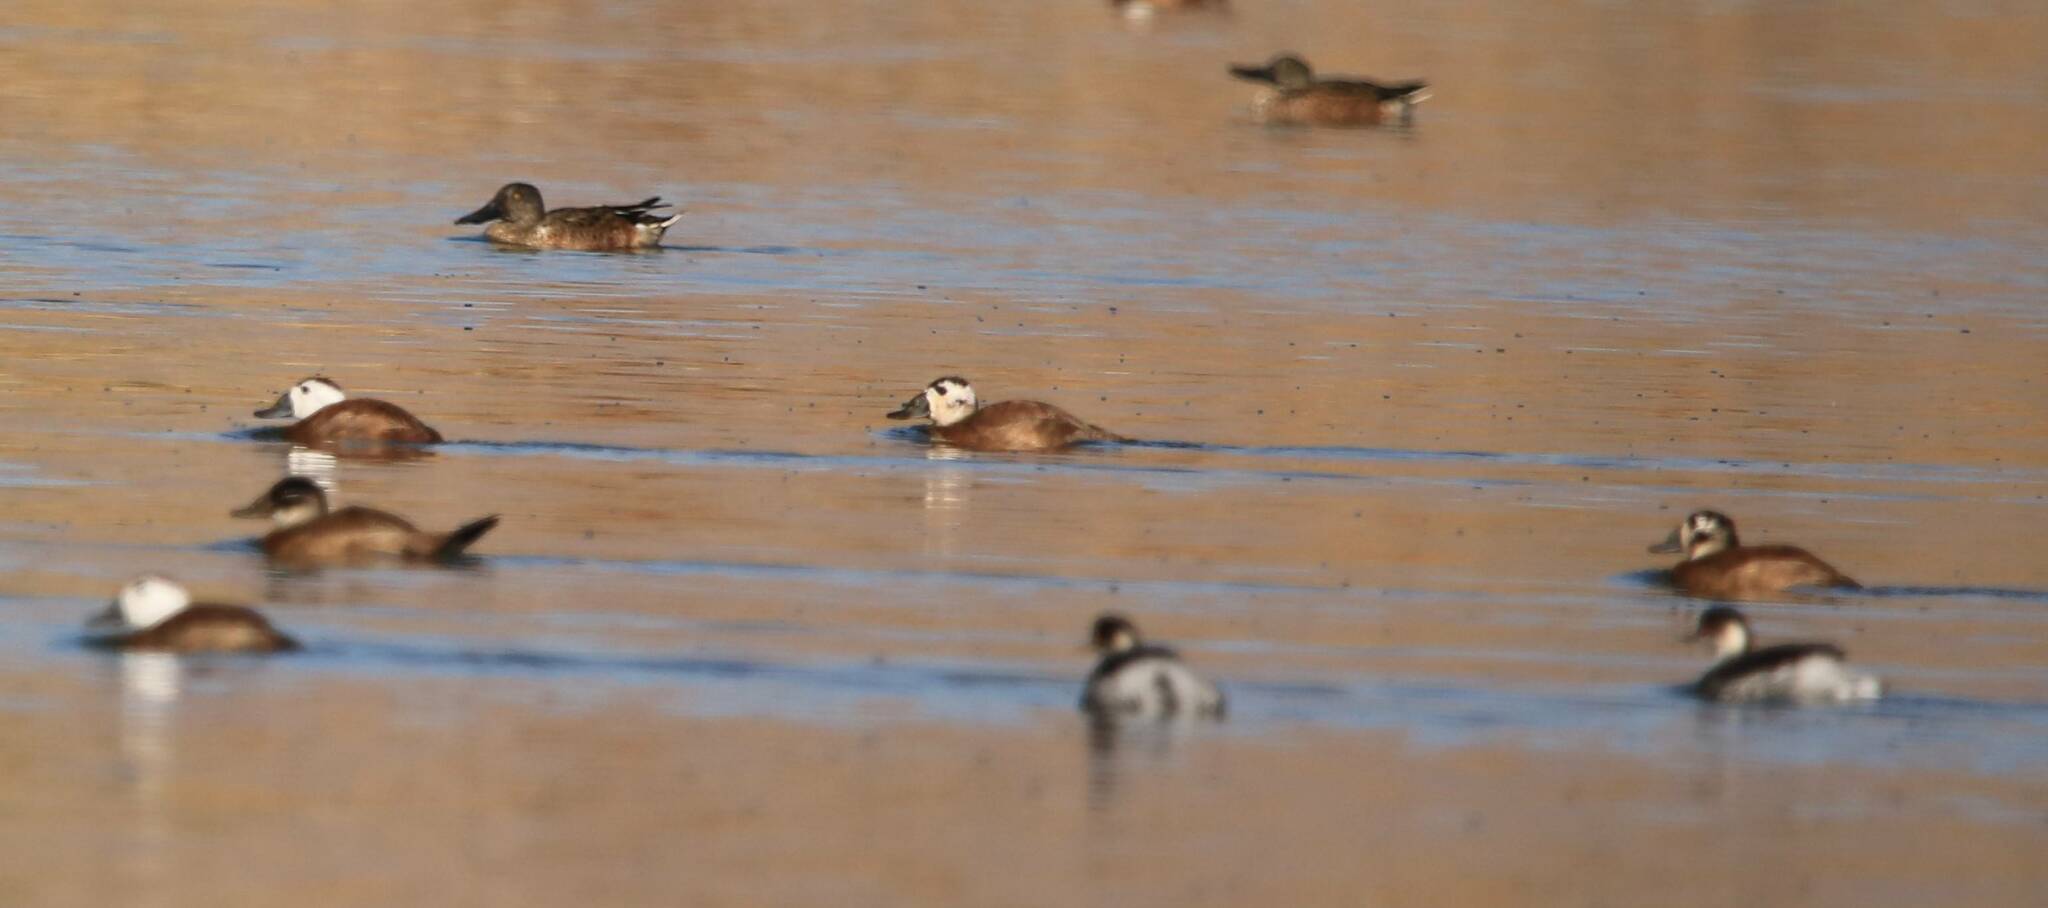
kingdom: Animalia
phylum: Chordata
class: Aves
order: Anseriformes
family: Anatidae
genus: Oxyura
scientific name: Oxyura leucocephala
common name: White-headed duck
